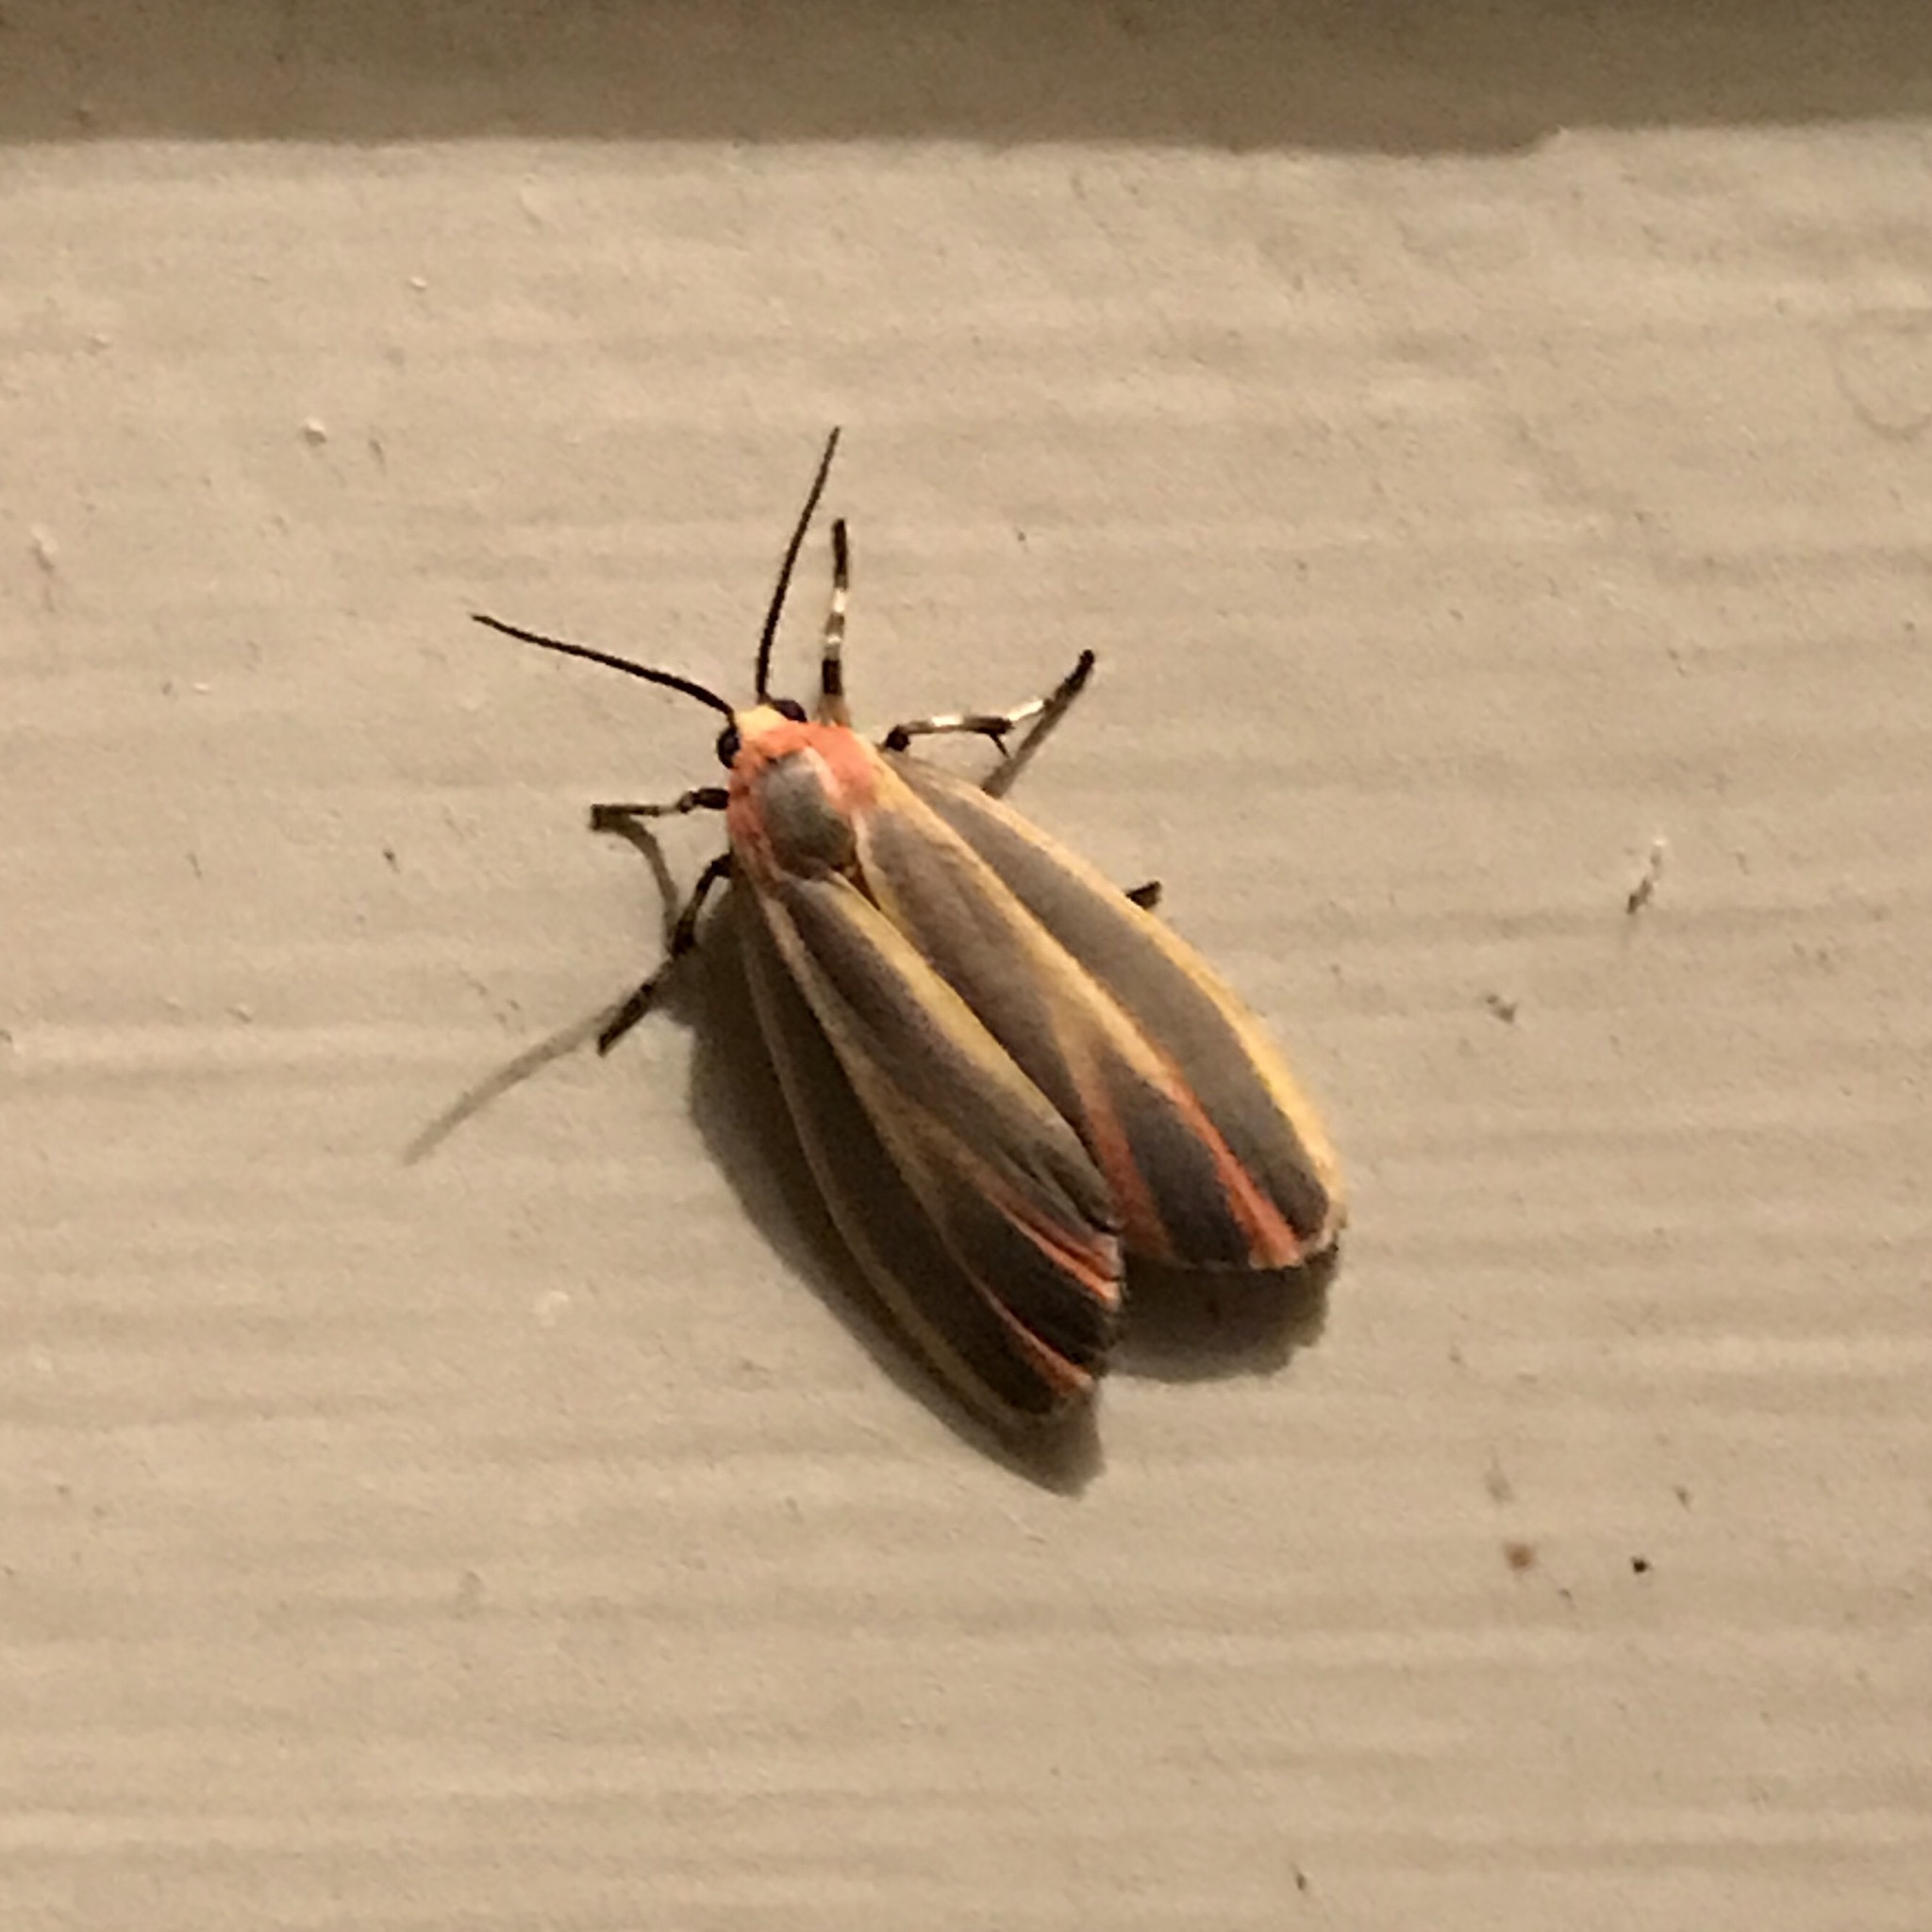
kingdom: Animalia
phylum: Arthropoda
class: Insecta
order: Lepidoptera
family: Erebidae
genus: Hypoprepia
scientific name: Hypoprepia fucosa
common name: Painted lichen moth
